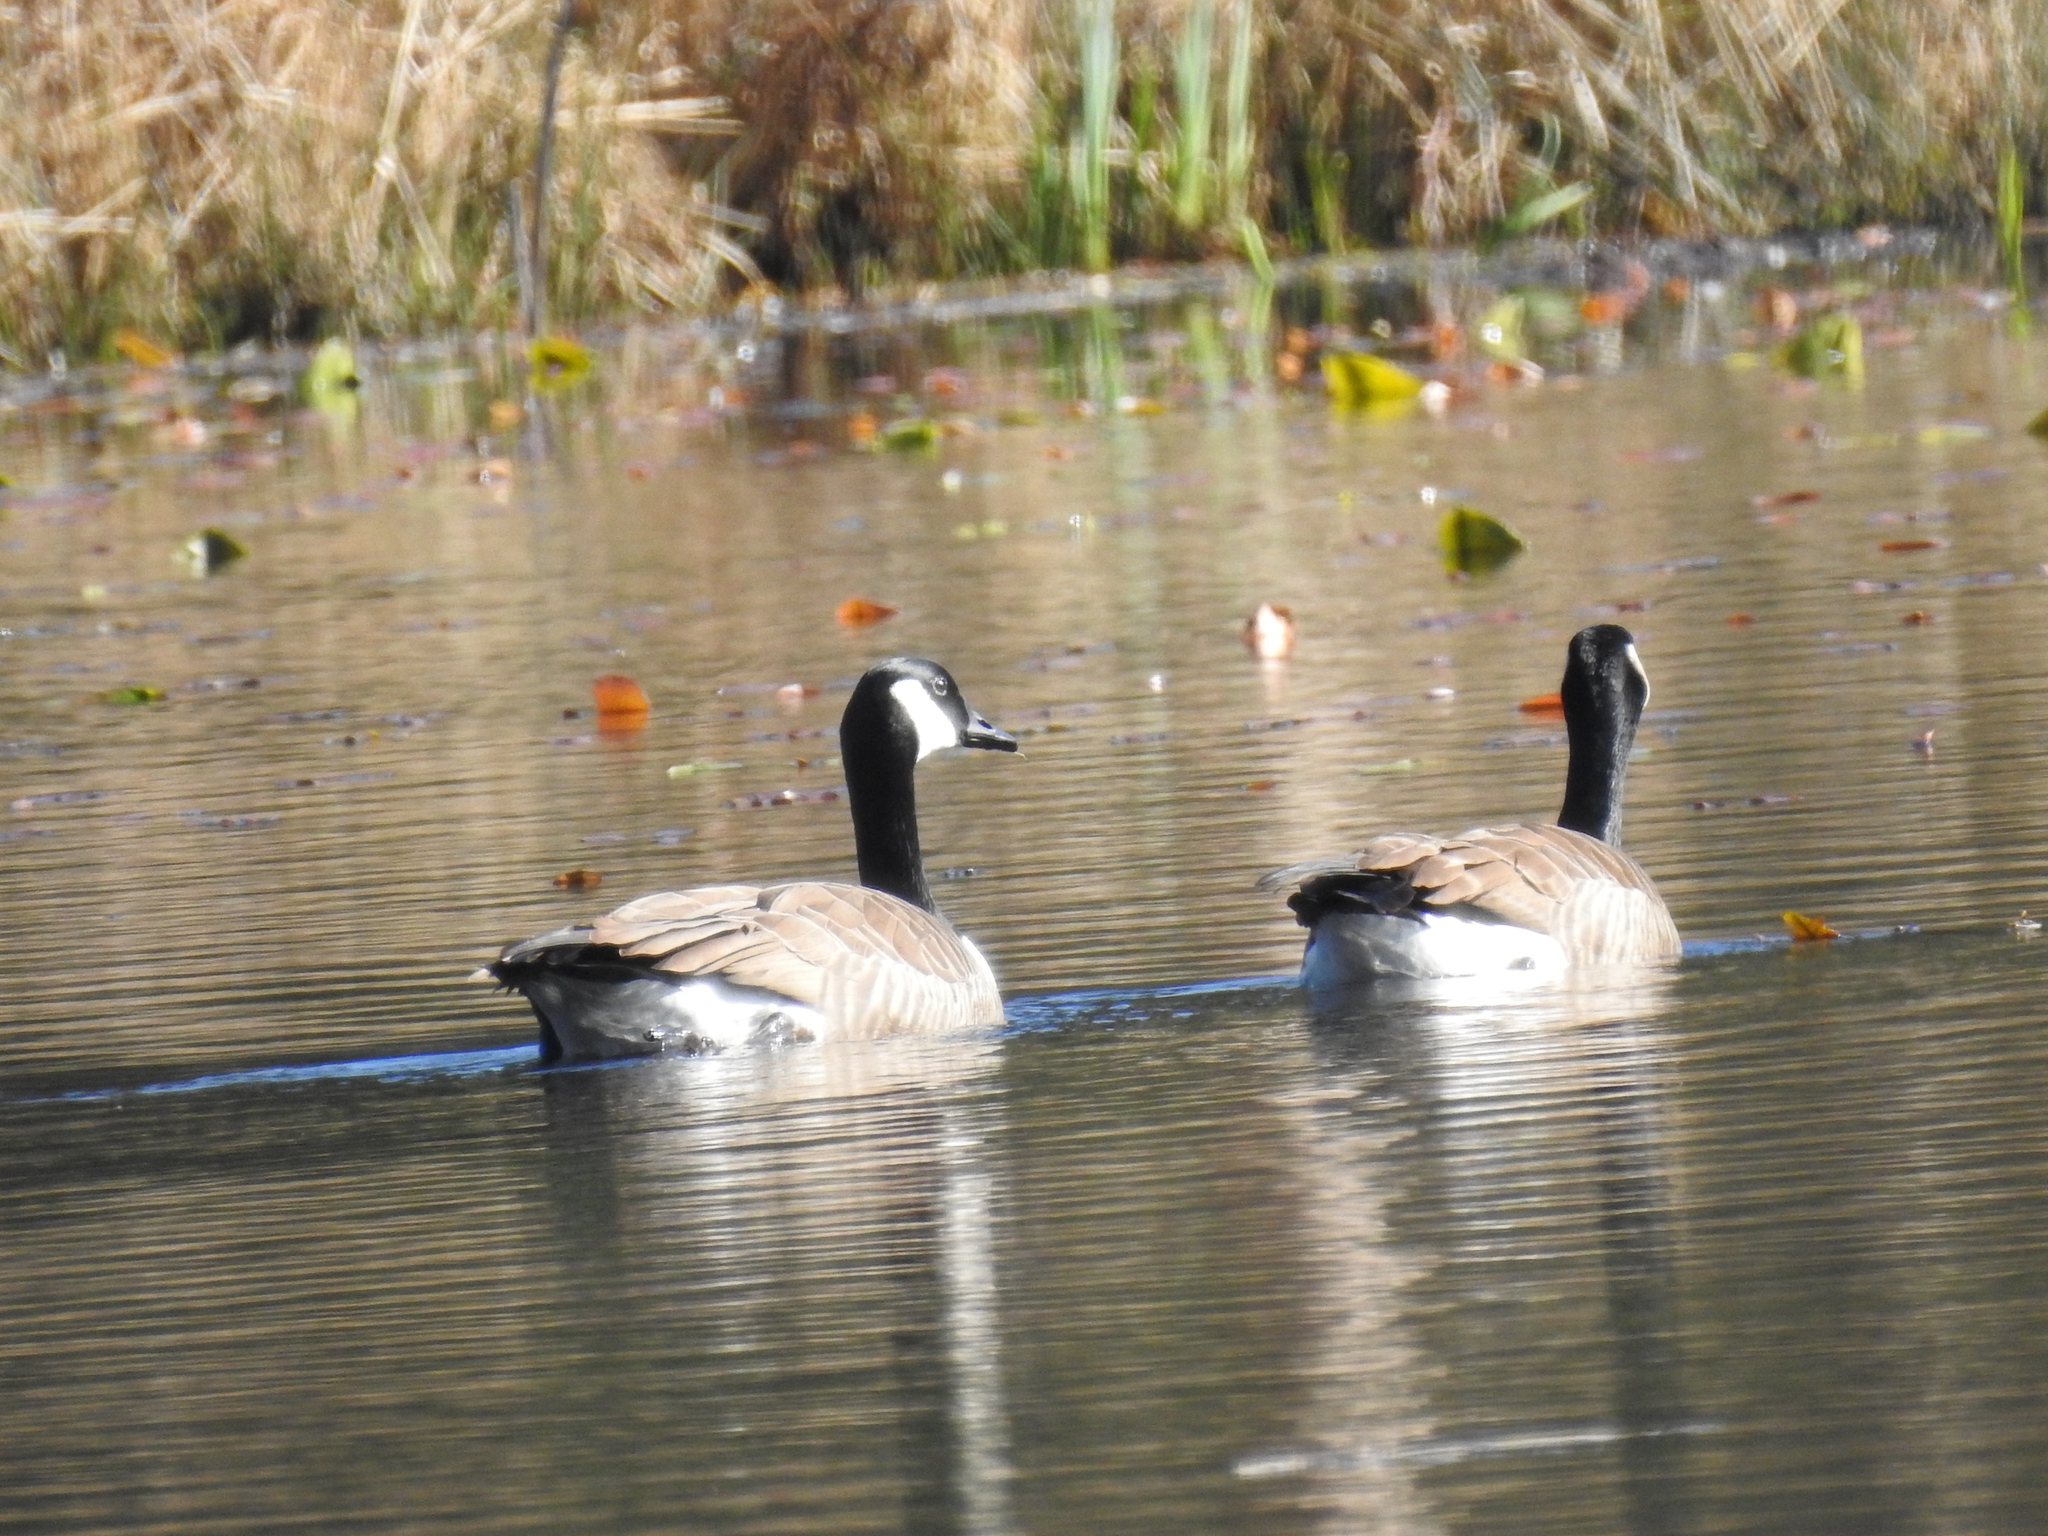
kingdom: Animalia
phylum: Chordata
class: Aves
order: Anseriformes
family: Anatidae
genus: Branta
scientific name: Branta canadensis
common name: Canada goose
